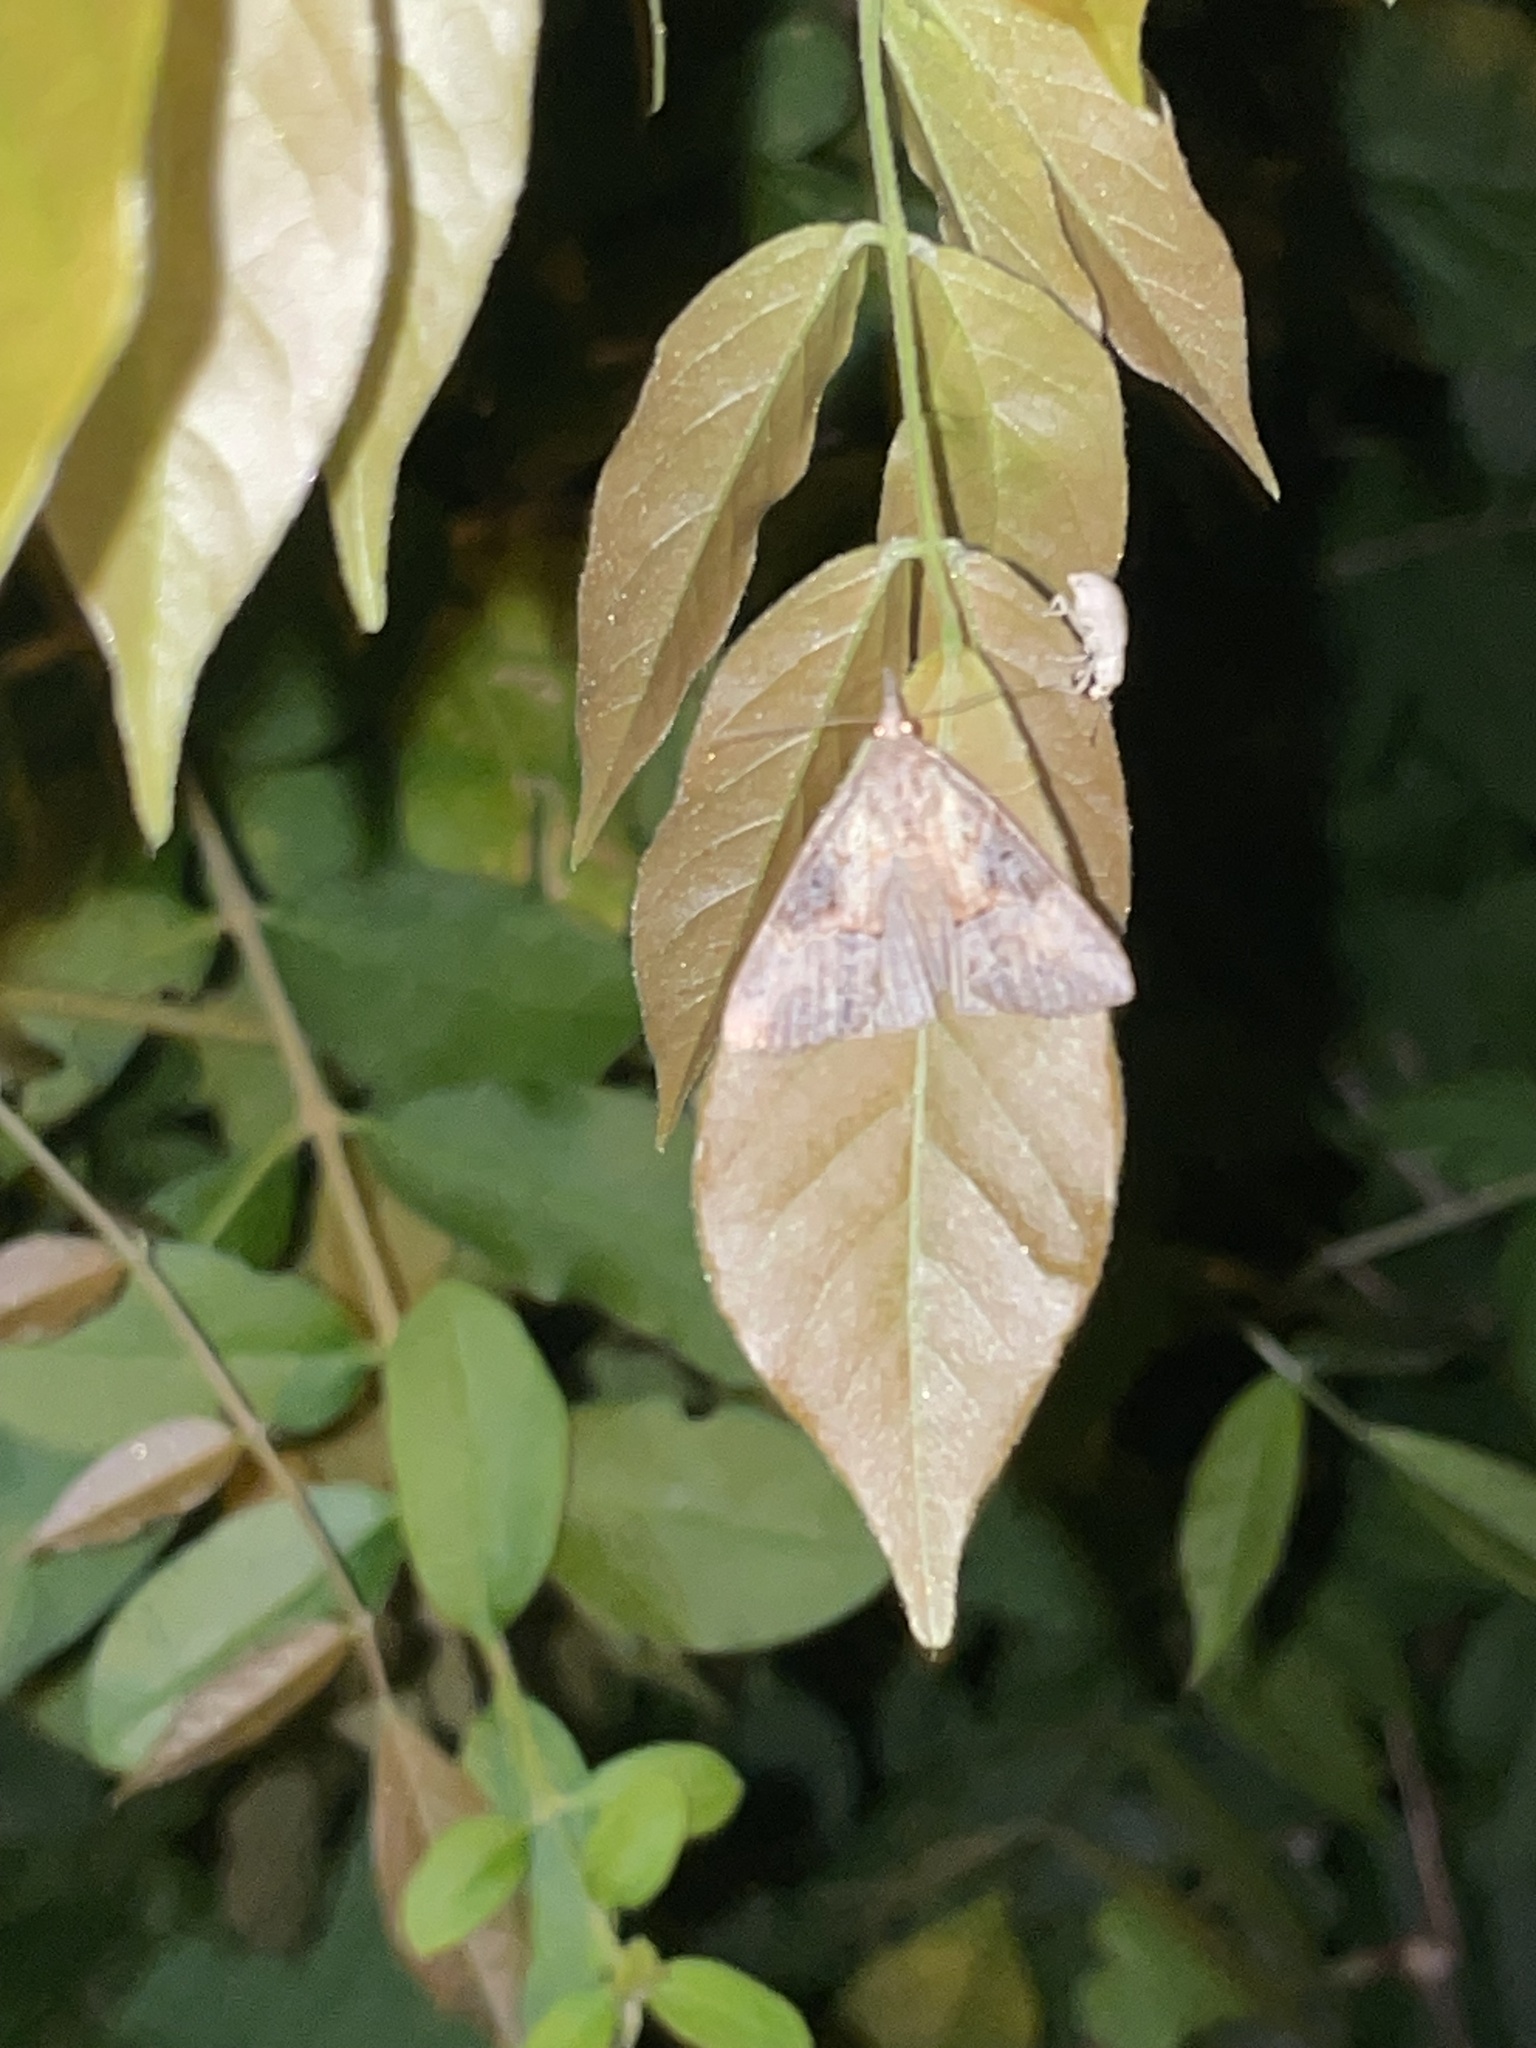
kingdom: Animalia
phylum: Arthropoda
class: Insecta
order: Lepidoptera
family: Erebidae
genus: Hypena
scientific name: Hypena scabra
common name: Green cloverworm
